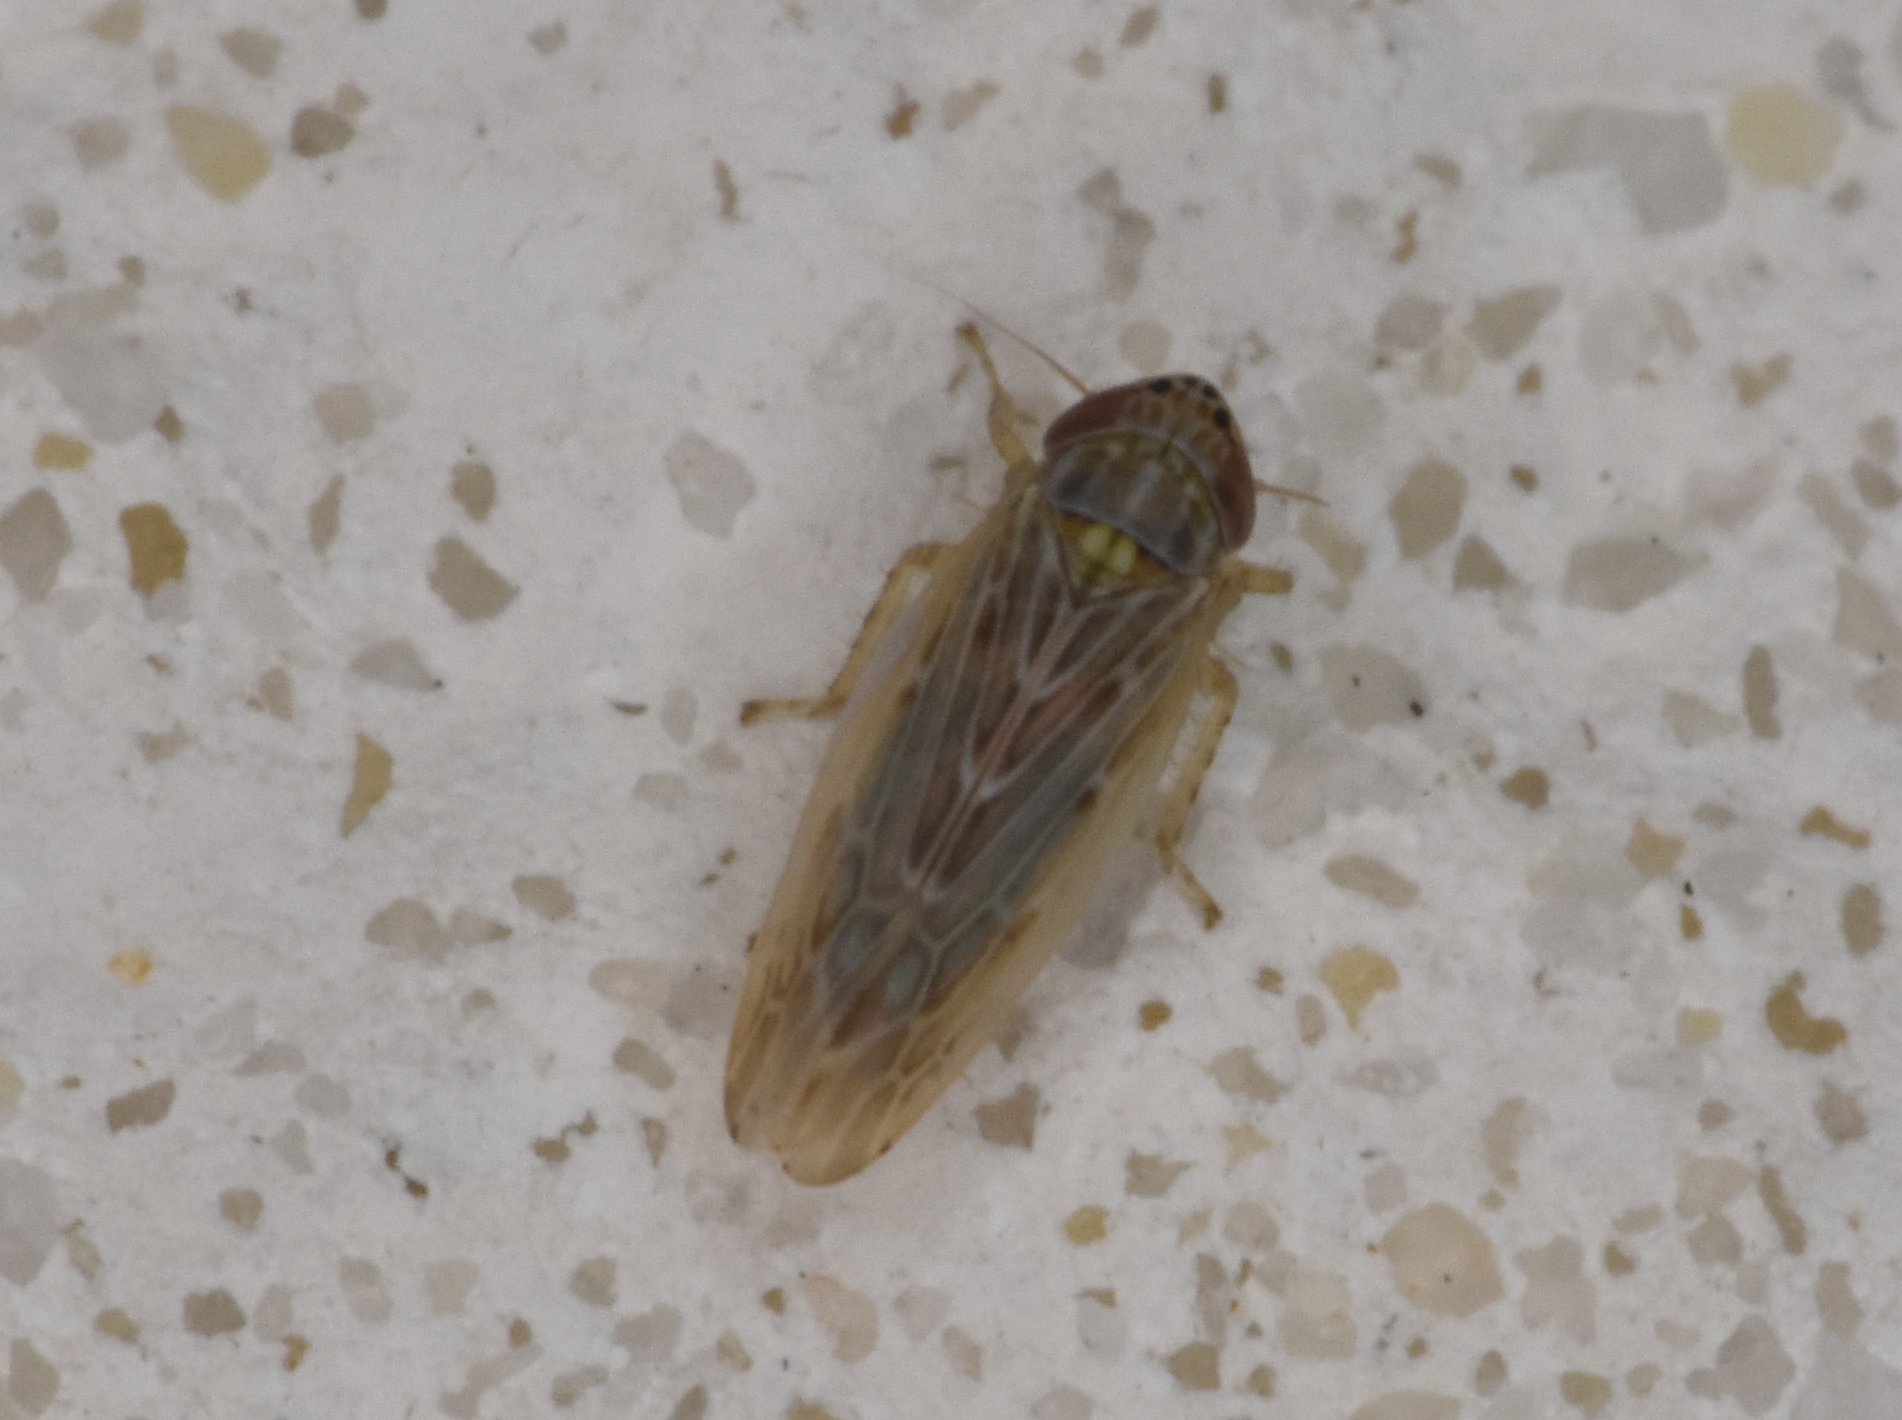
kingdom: Animalia
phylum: Arthropoda
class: Insecta
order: Hemiptera
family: Cicadellidae
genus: Graminella
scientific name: Graminella sonora
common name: Lesser lawn leafhopper
